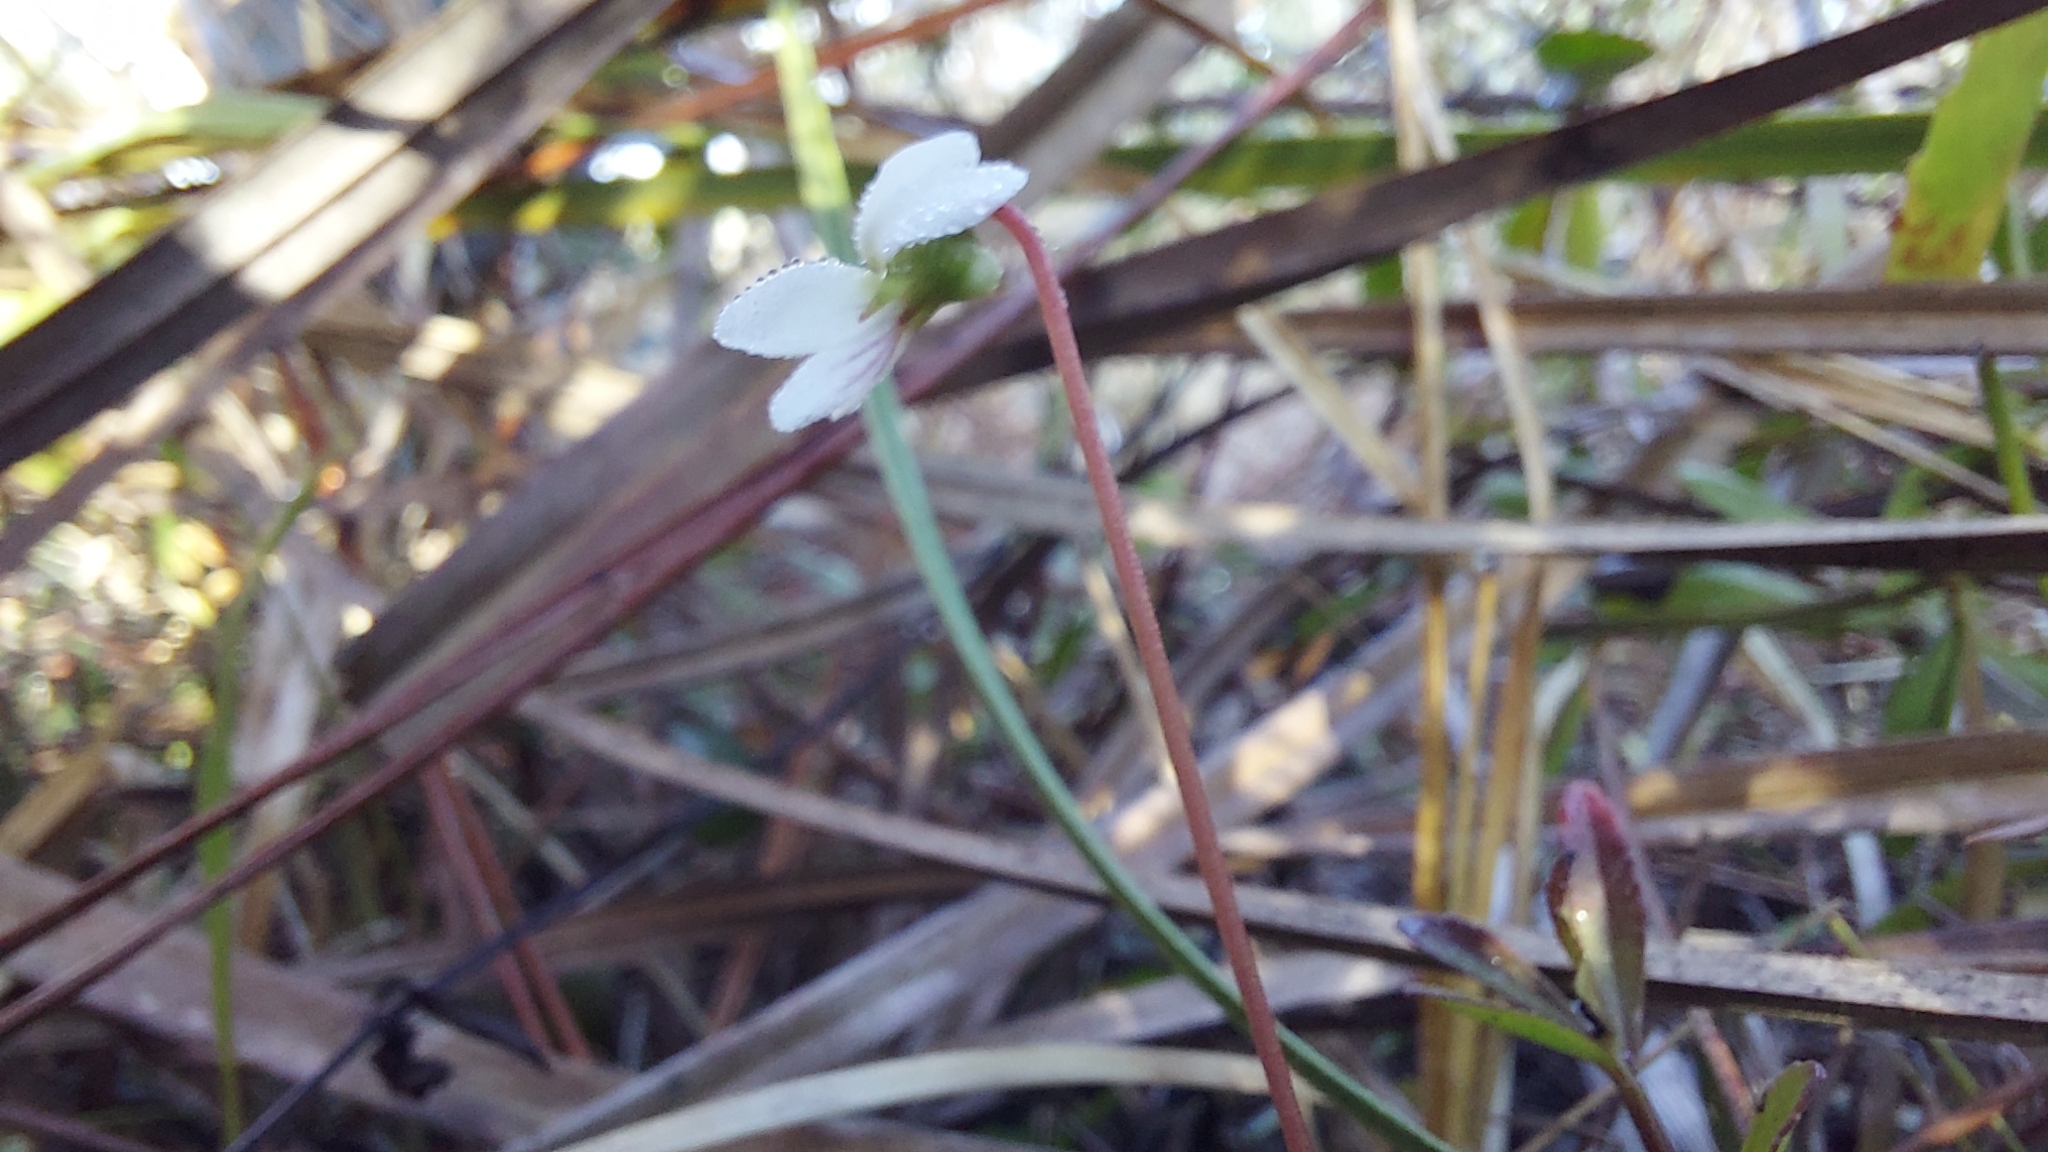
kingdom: Plantae
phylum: Tracheophyta
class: Magnoliopsida
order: Malpighiales
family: Violaceae
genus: Viola
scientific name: Viola vittata
